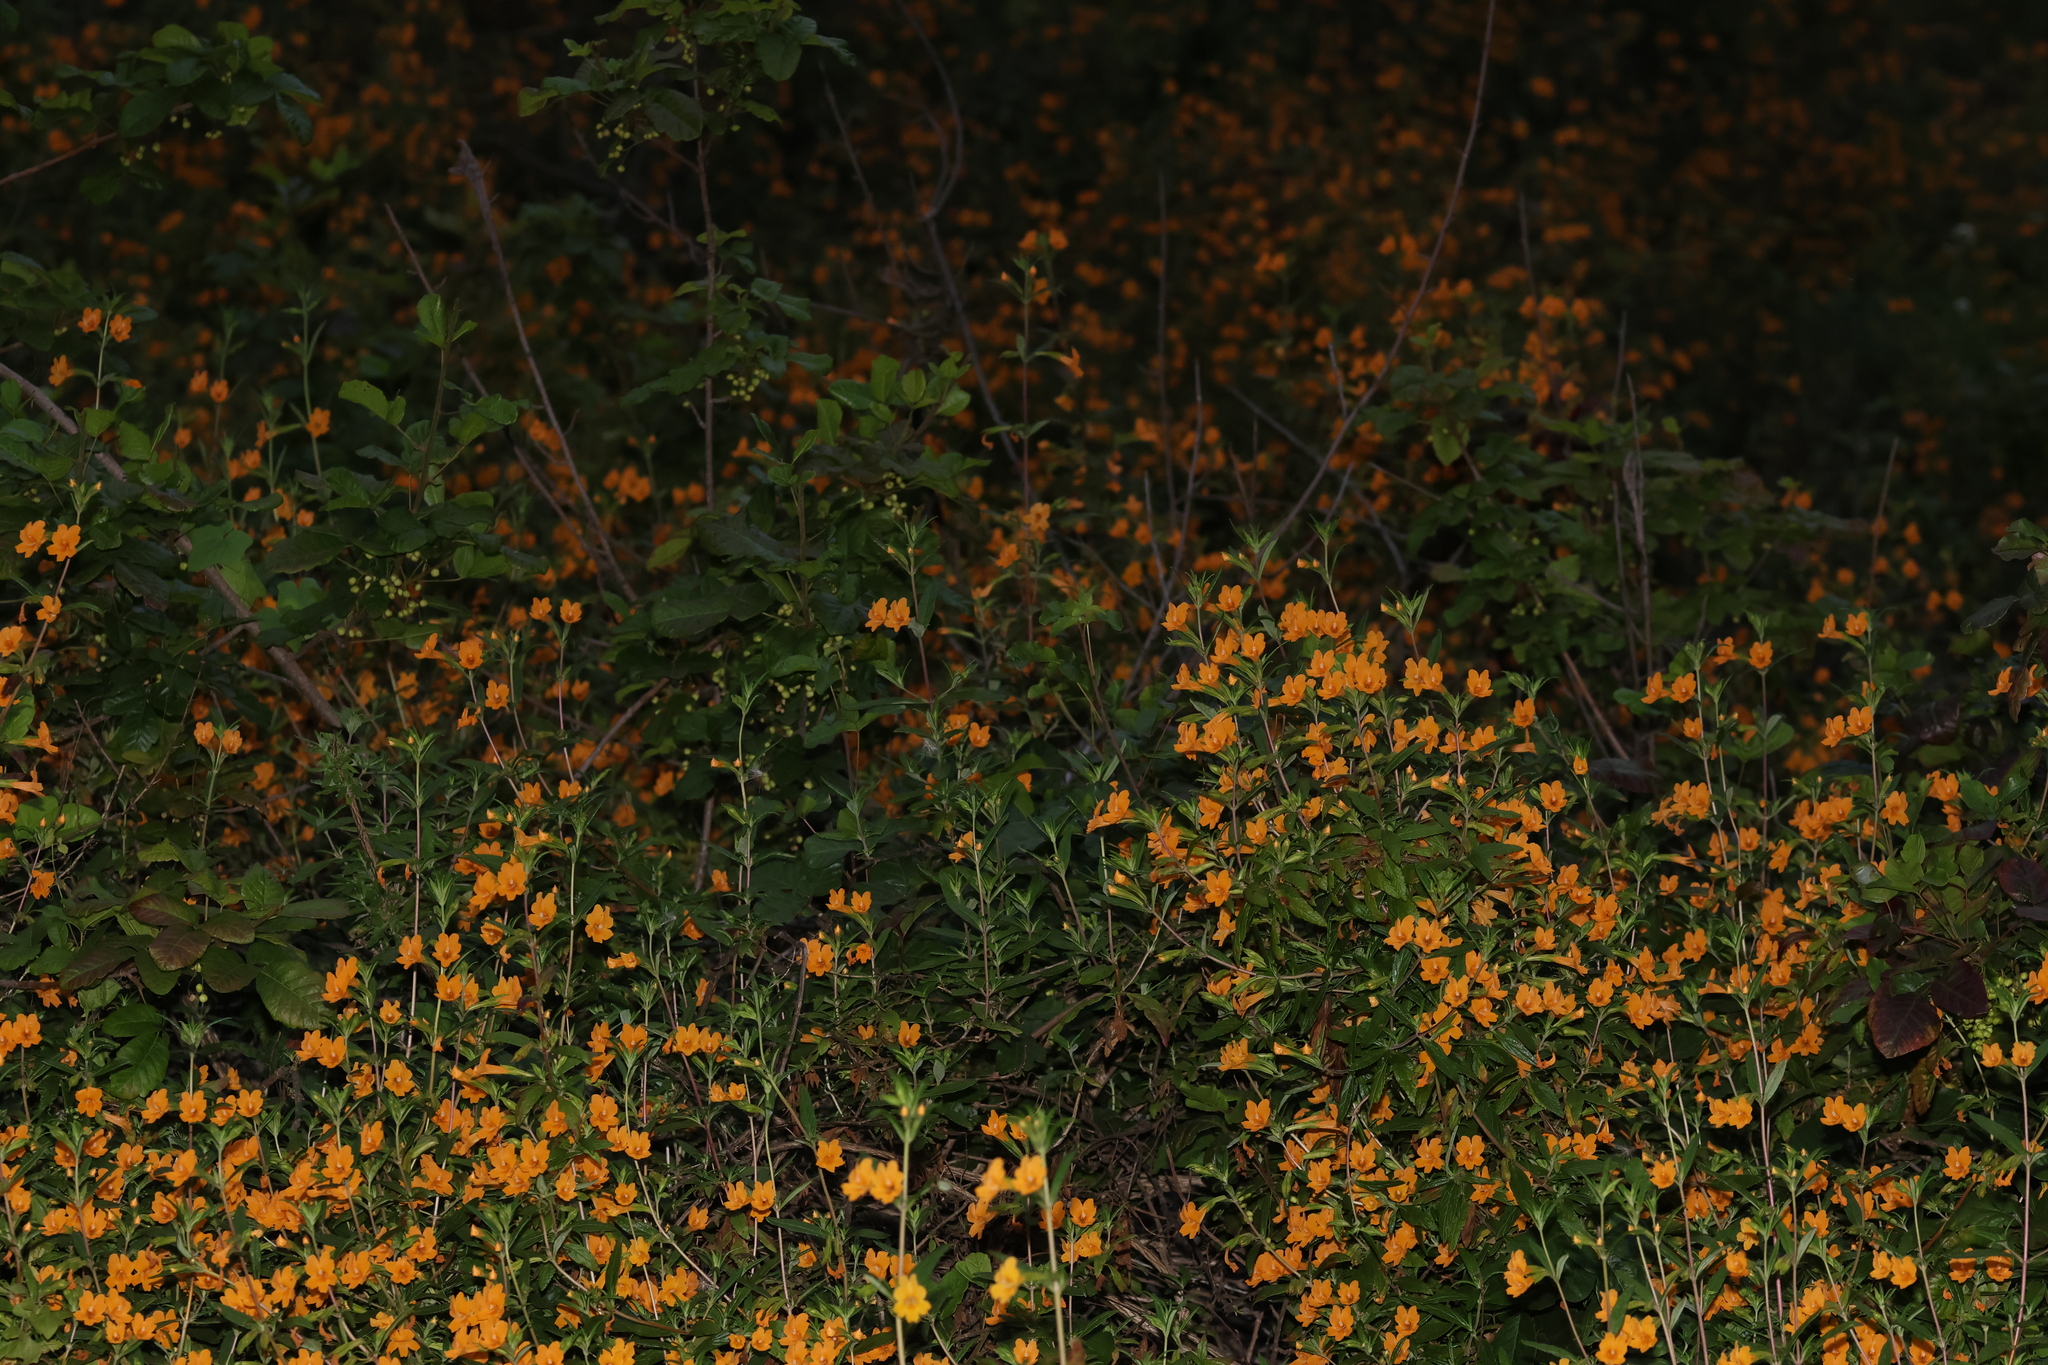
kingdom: Plantae
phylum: Tracheophyta
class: Magnoliopsida
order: Lamiales
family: Phrymaceae
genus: Diplacus
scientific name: Diplacus aurantiacus
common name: Bush monkey-flower
